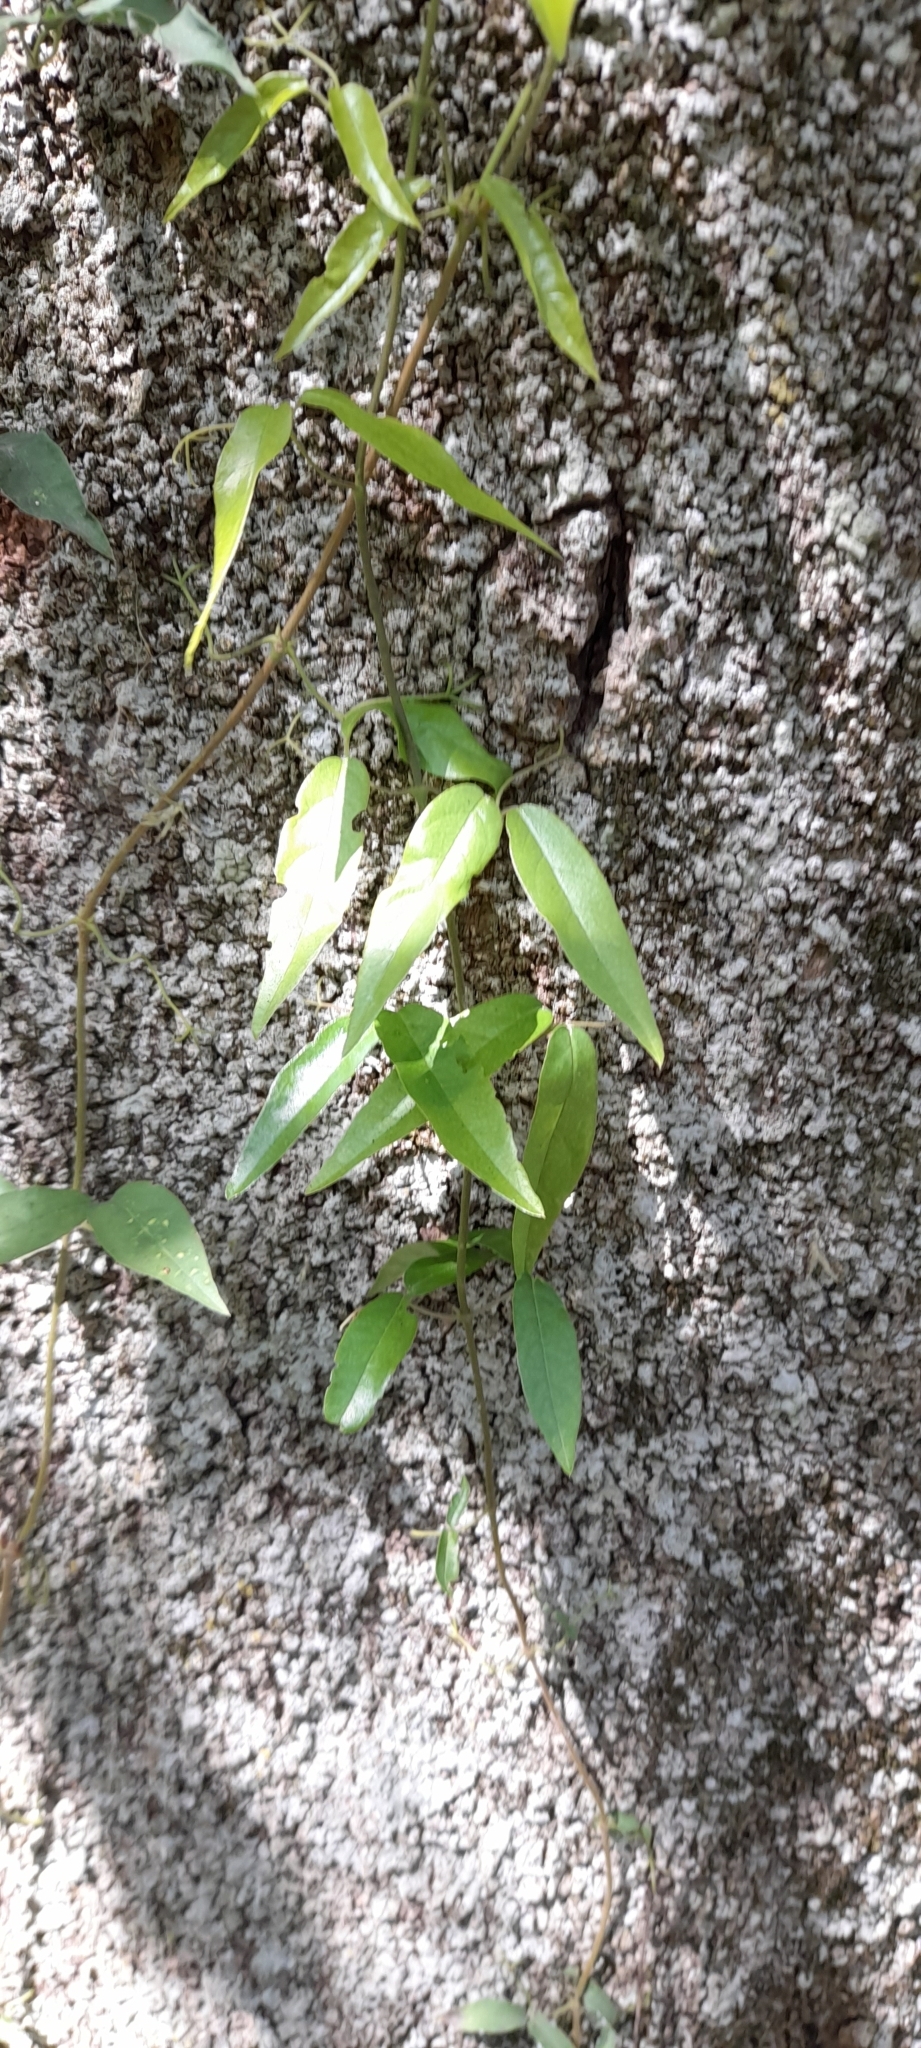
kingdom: Plantae
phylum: Tracheophyta
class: Magnoliopsida
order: Lamiales
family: Bignoniaceae
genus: Dolichandra
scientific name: Dolichandra unguis-cati
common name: Catclaw vine
